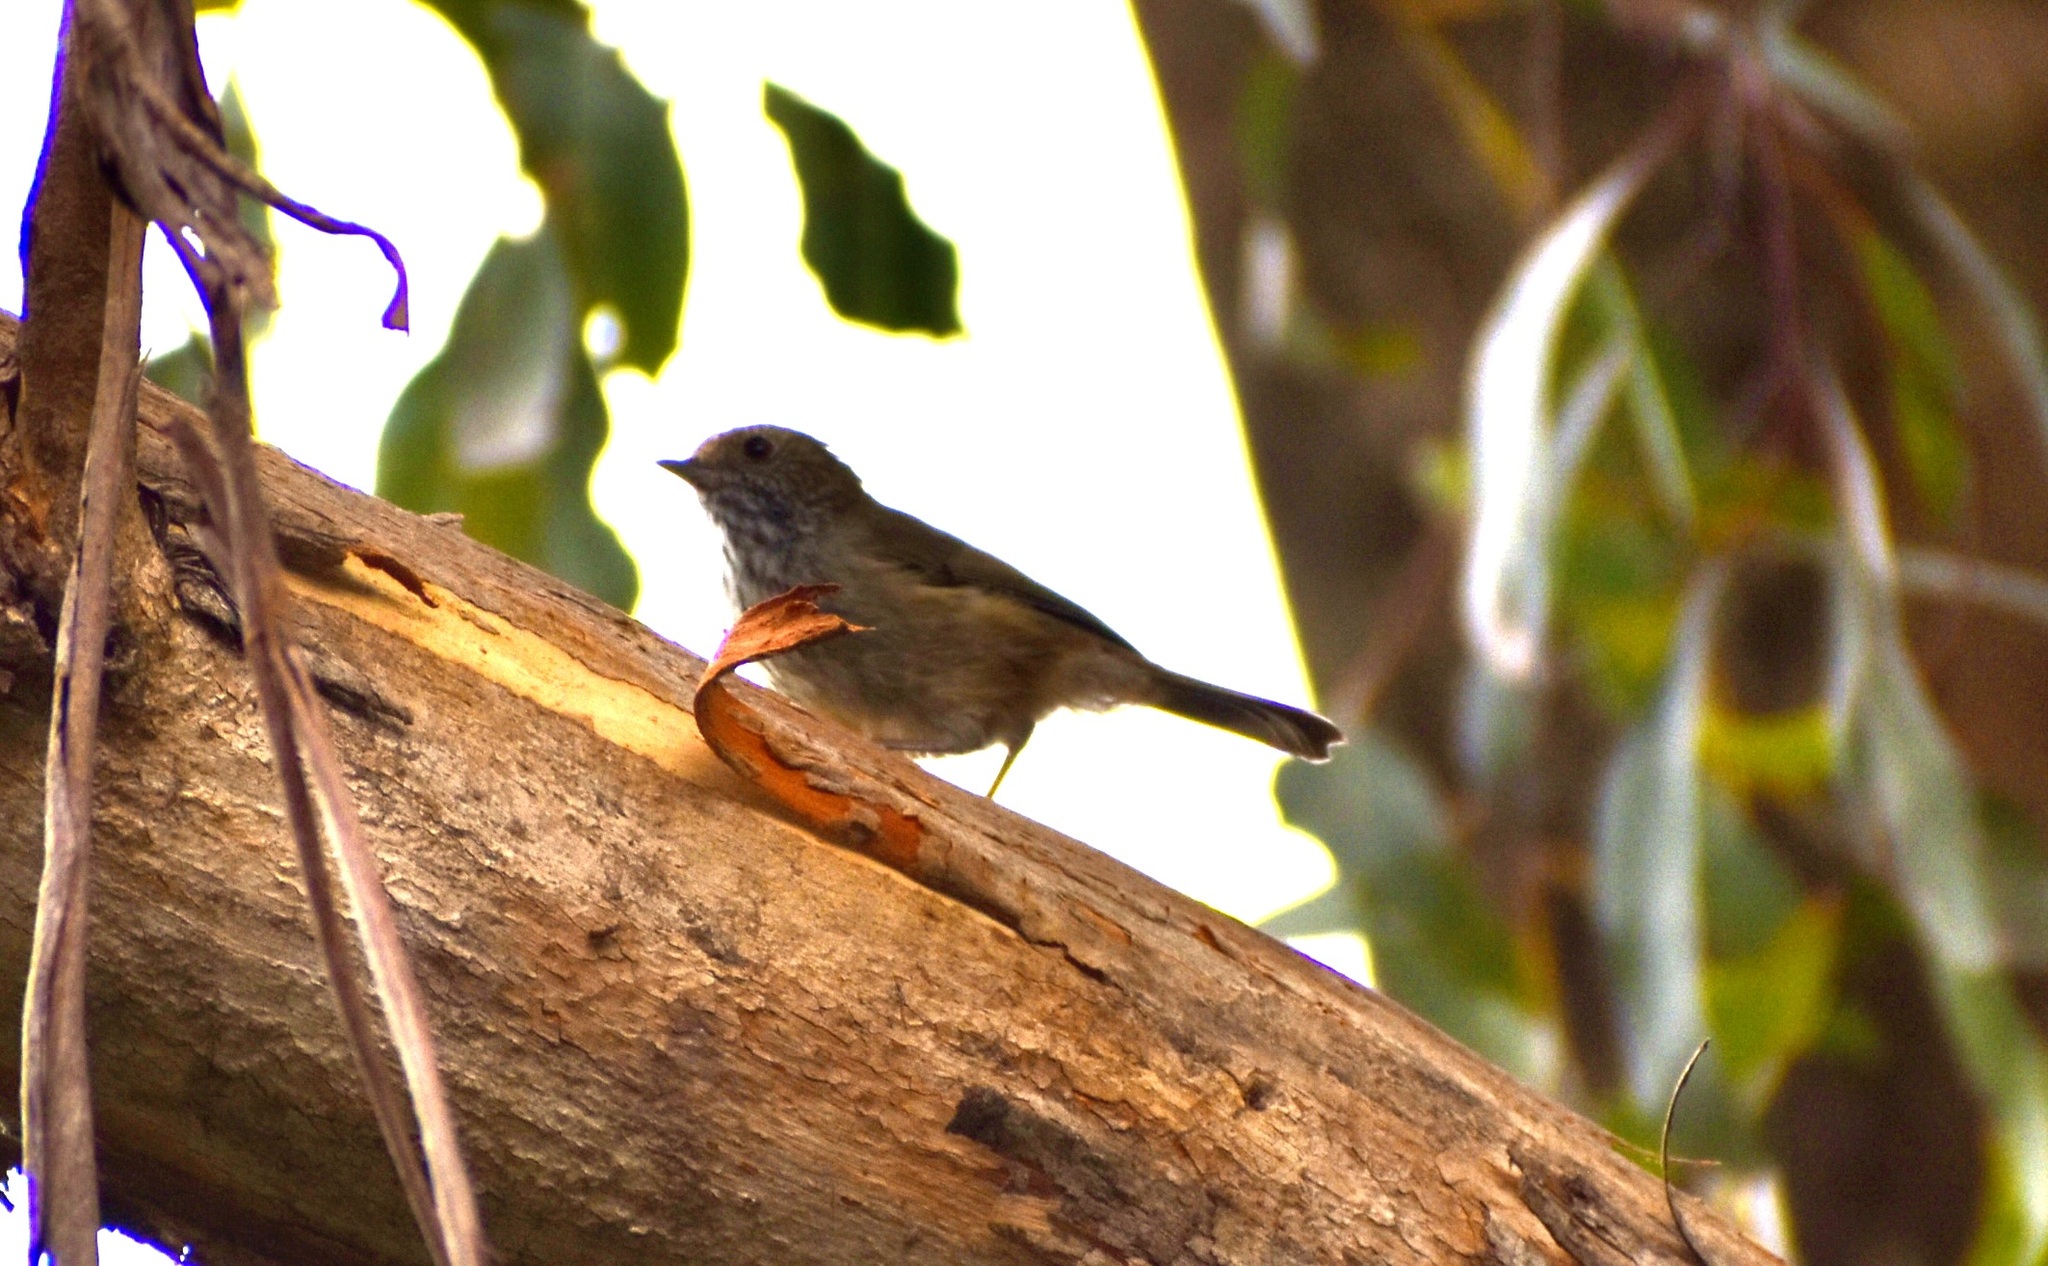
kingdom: Animalia
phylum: Chordata
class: Aves
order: Passeriformes
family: Acanthizidae
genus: Acanthiza
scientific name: Acanthiza pusilla
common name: Brown thornbill
